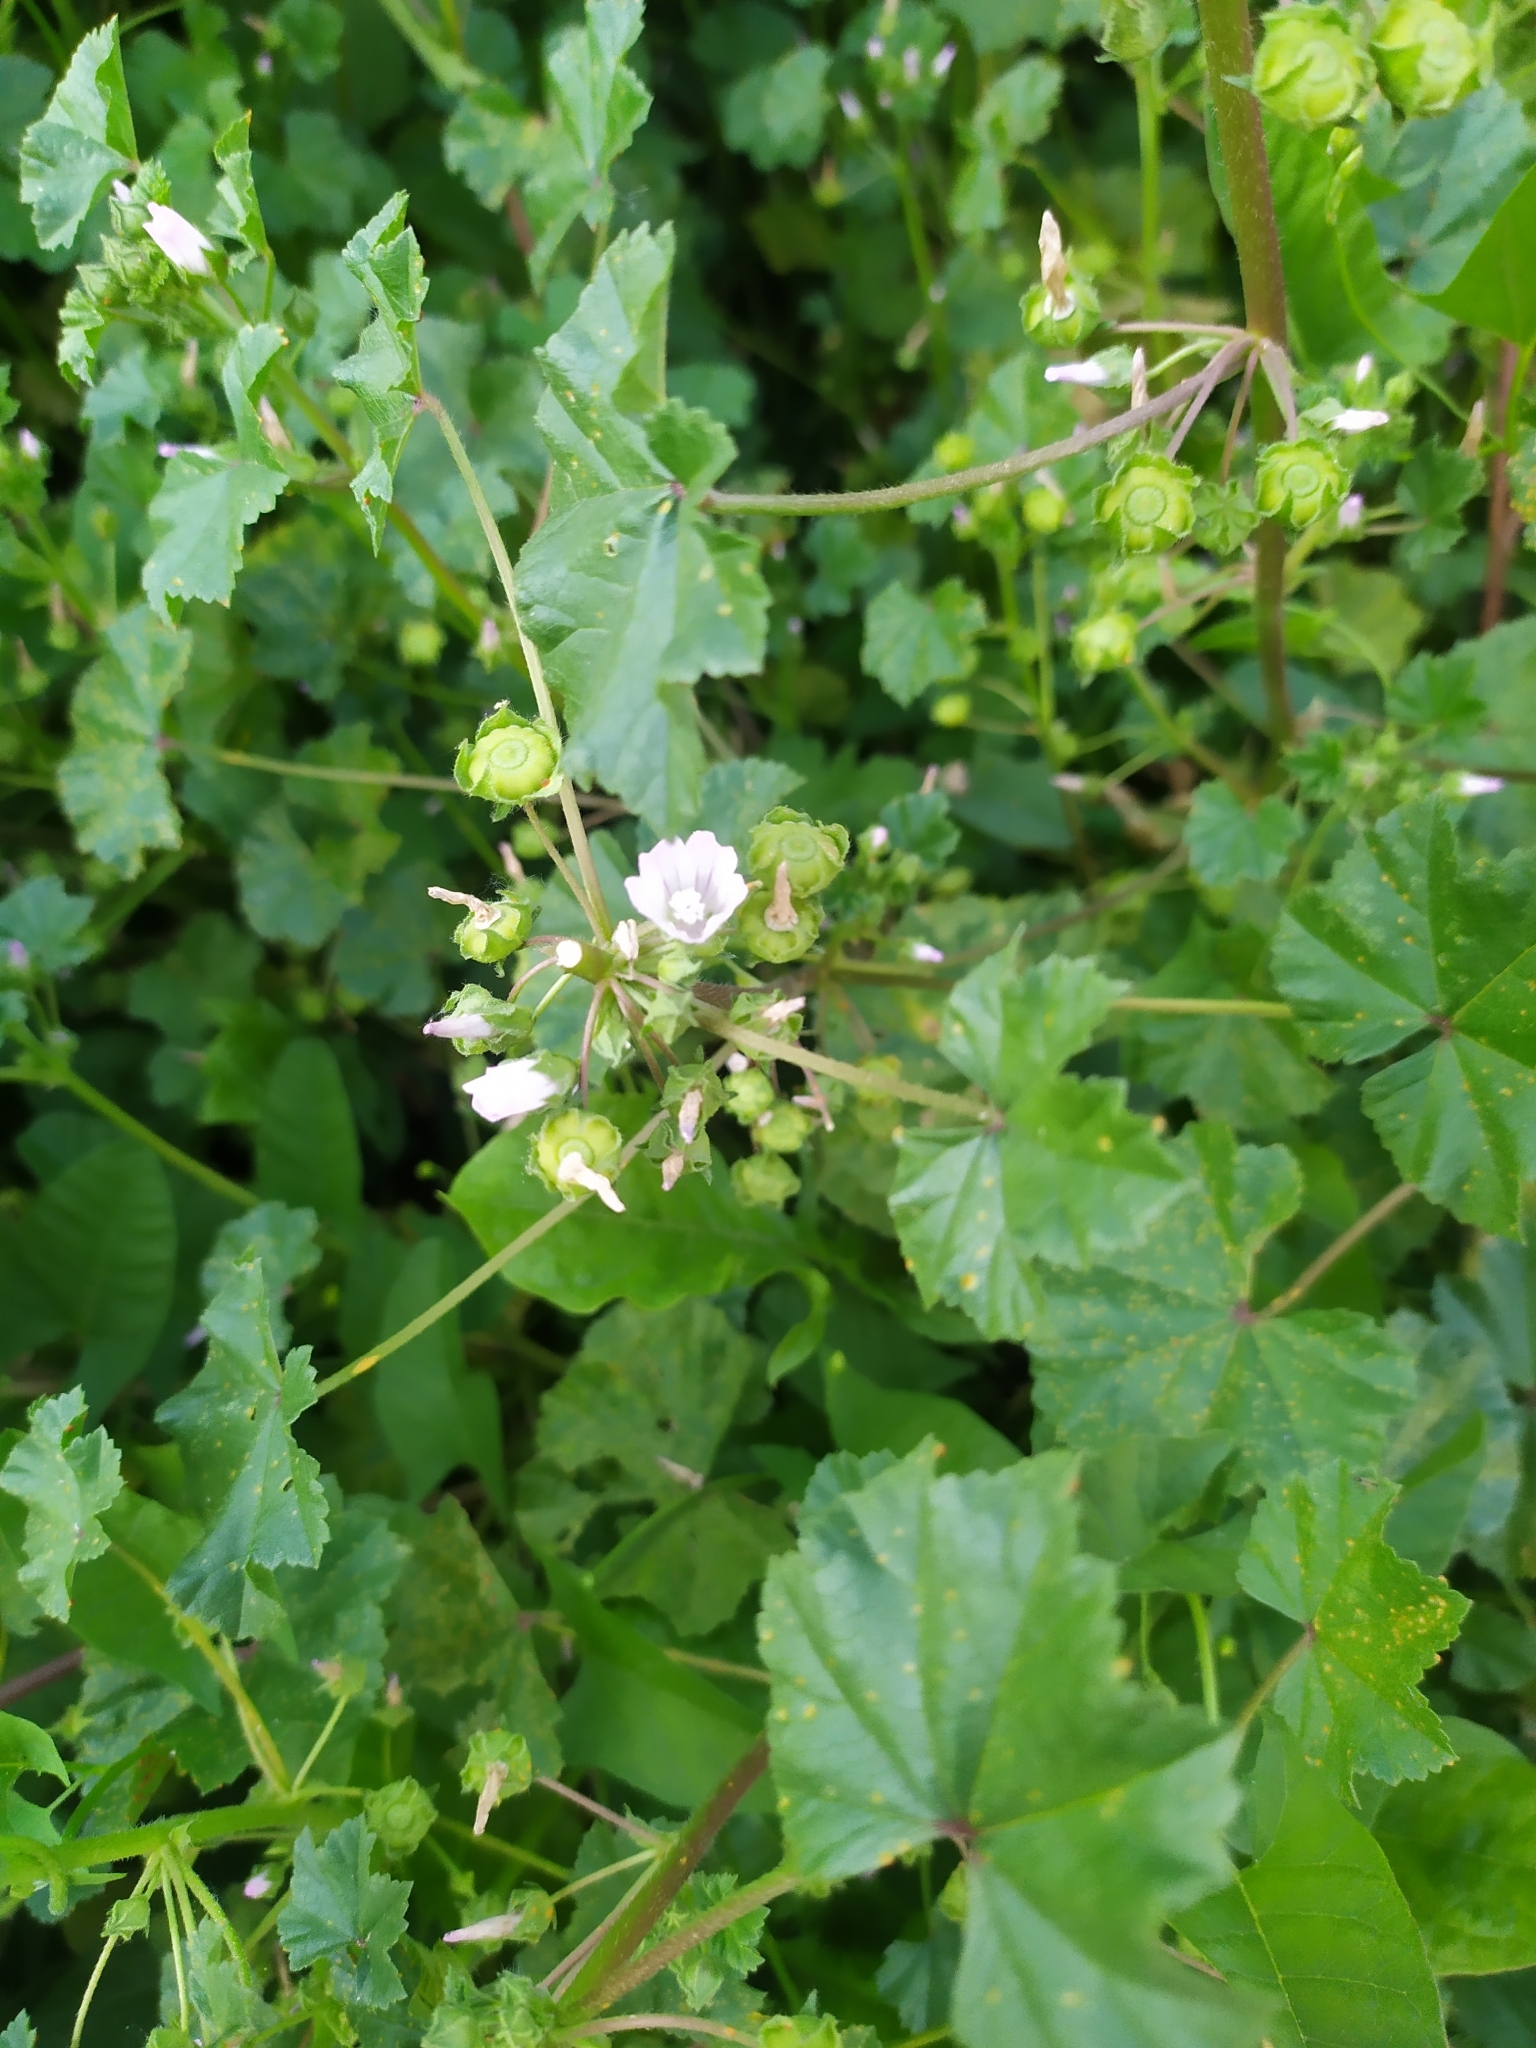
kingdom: Plantae
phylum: Tracheophyta
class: Magnoliopsida
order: Malvales
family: Malvaceae
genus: Malva
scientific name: Malva neglecta
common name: Common mallow
